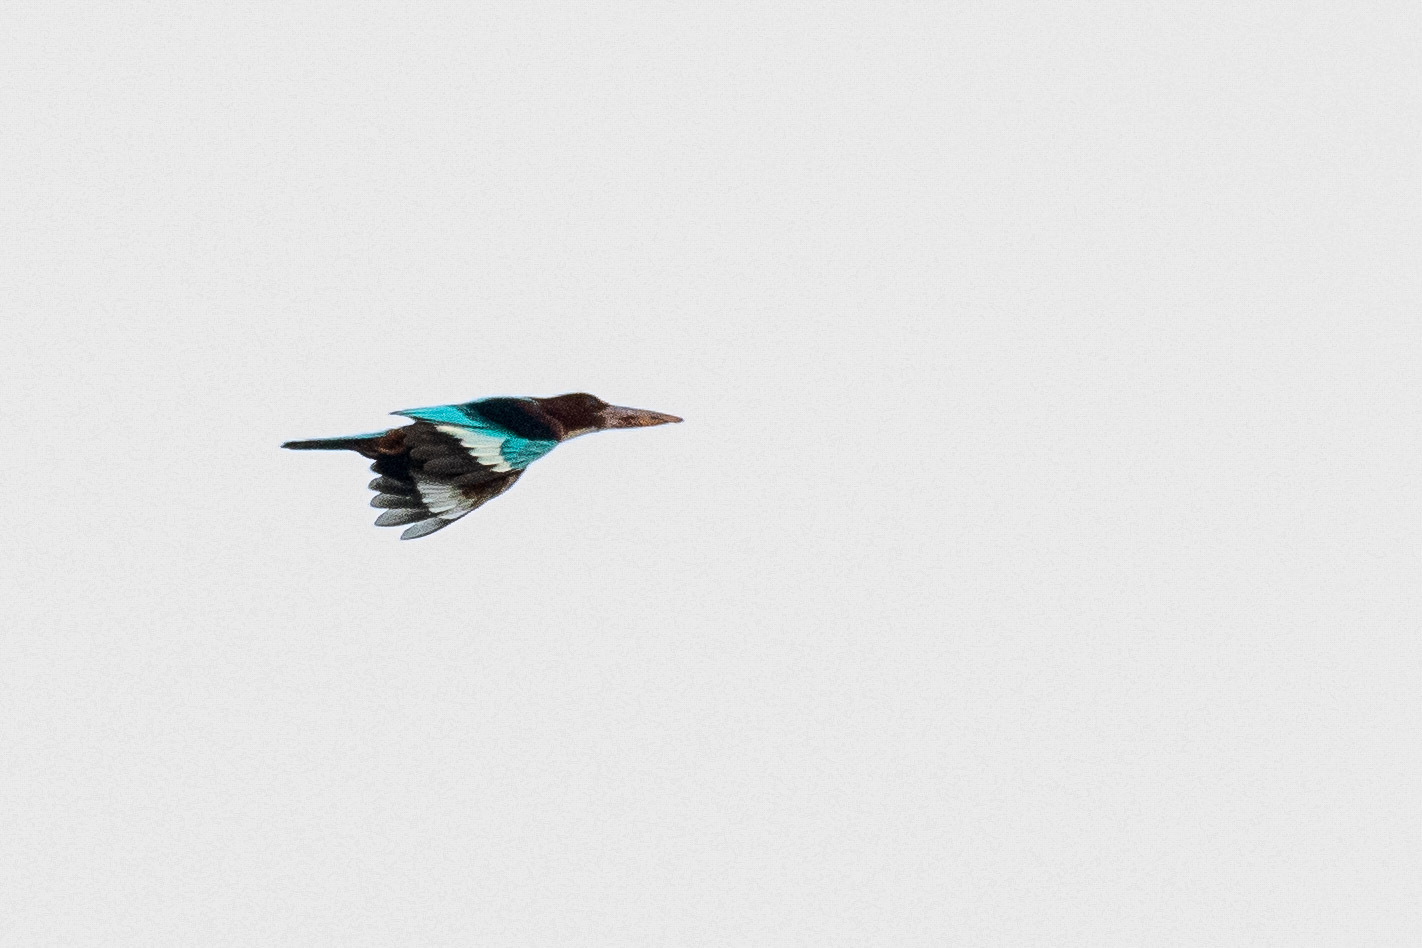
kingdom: Animalia
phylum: Chordata
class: Aves
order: Coraciiformes
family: Alcedinidae
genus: Halcyon
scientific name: Halcyon smyrnensis
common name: White-throated kingfisher
